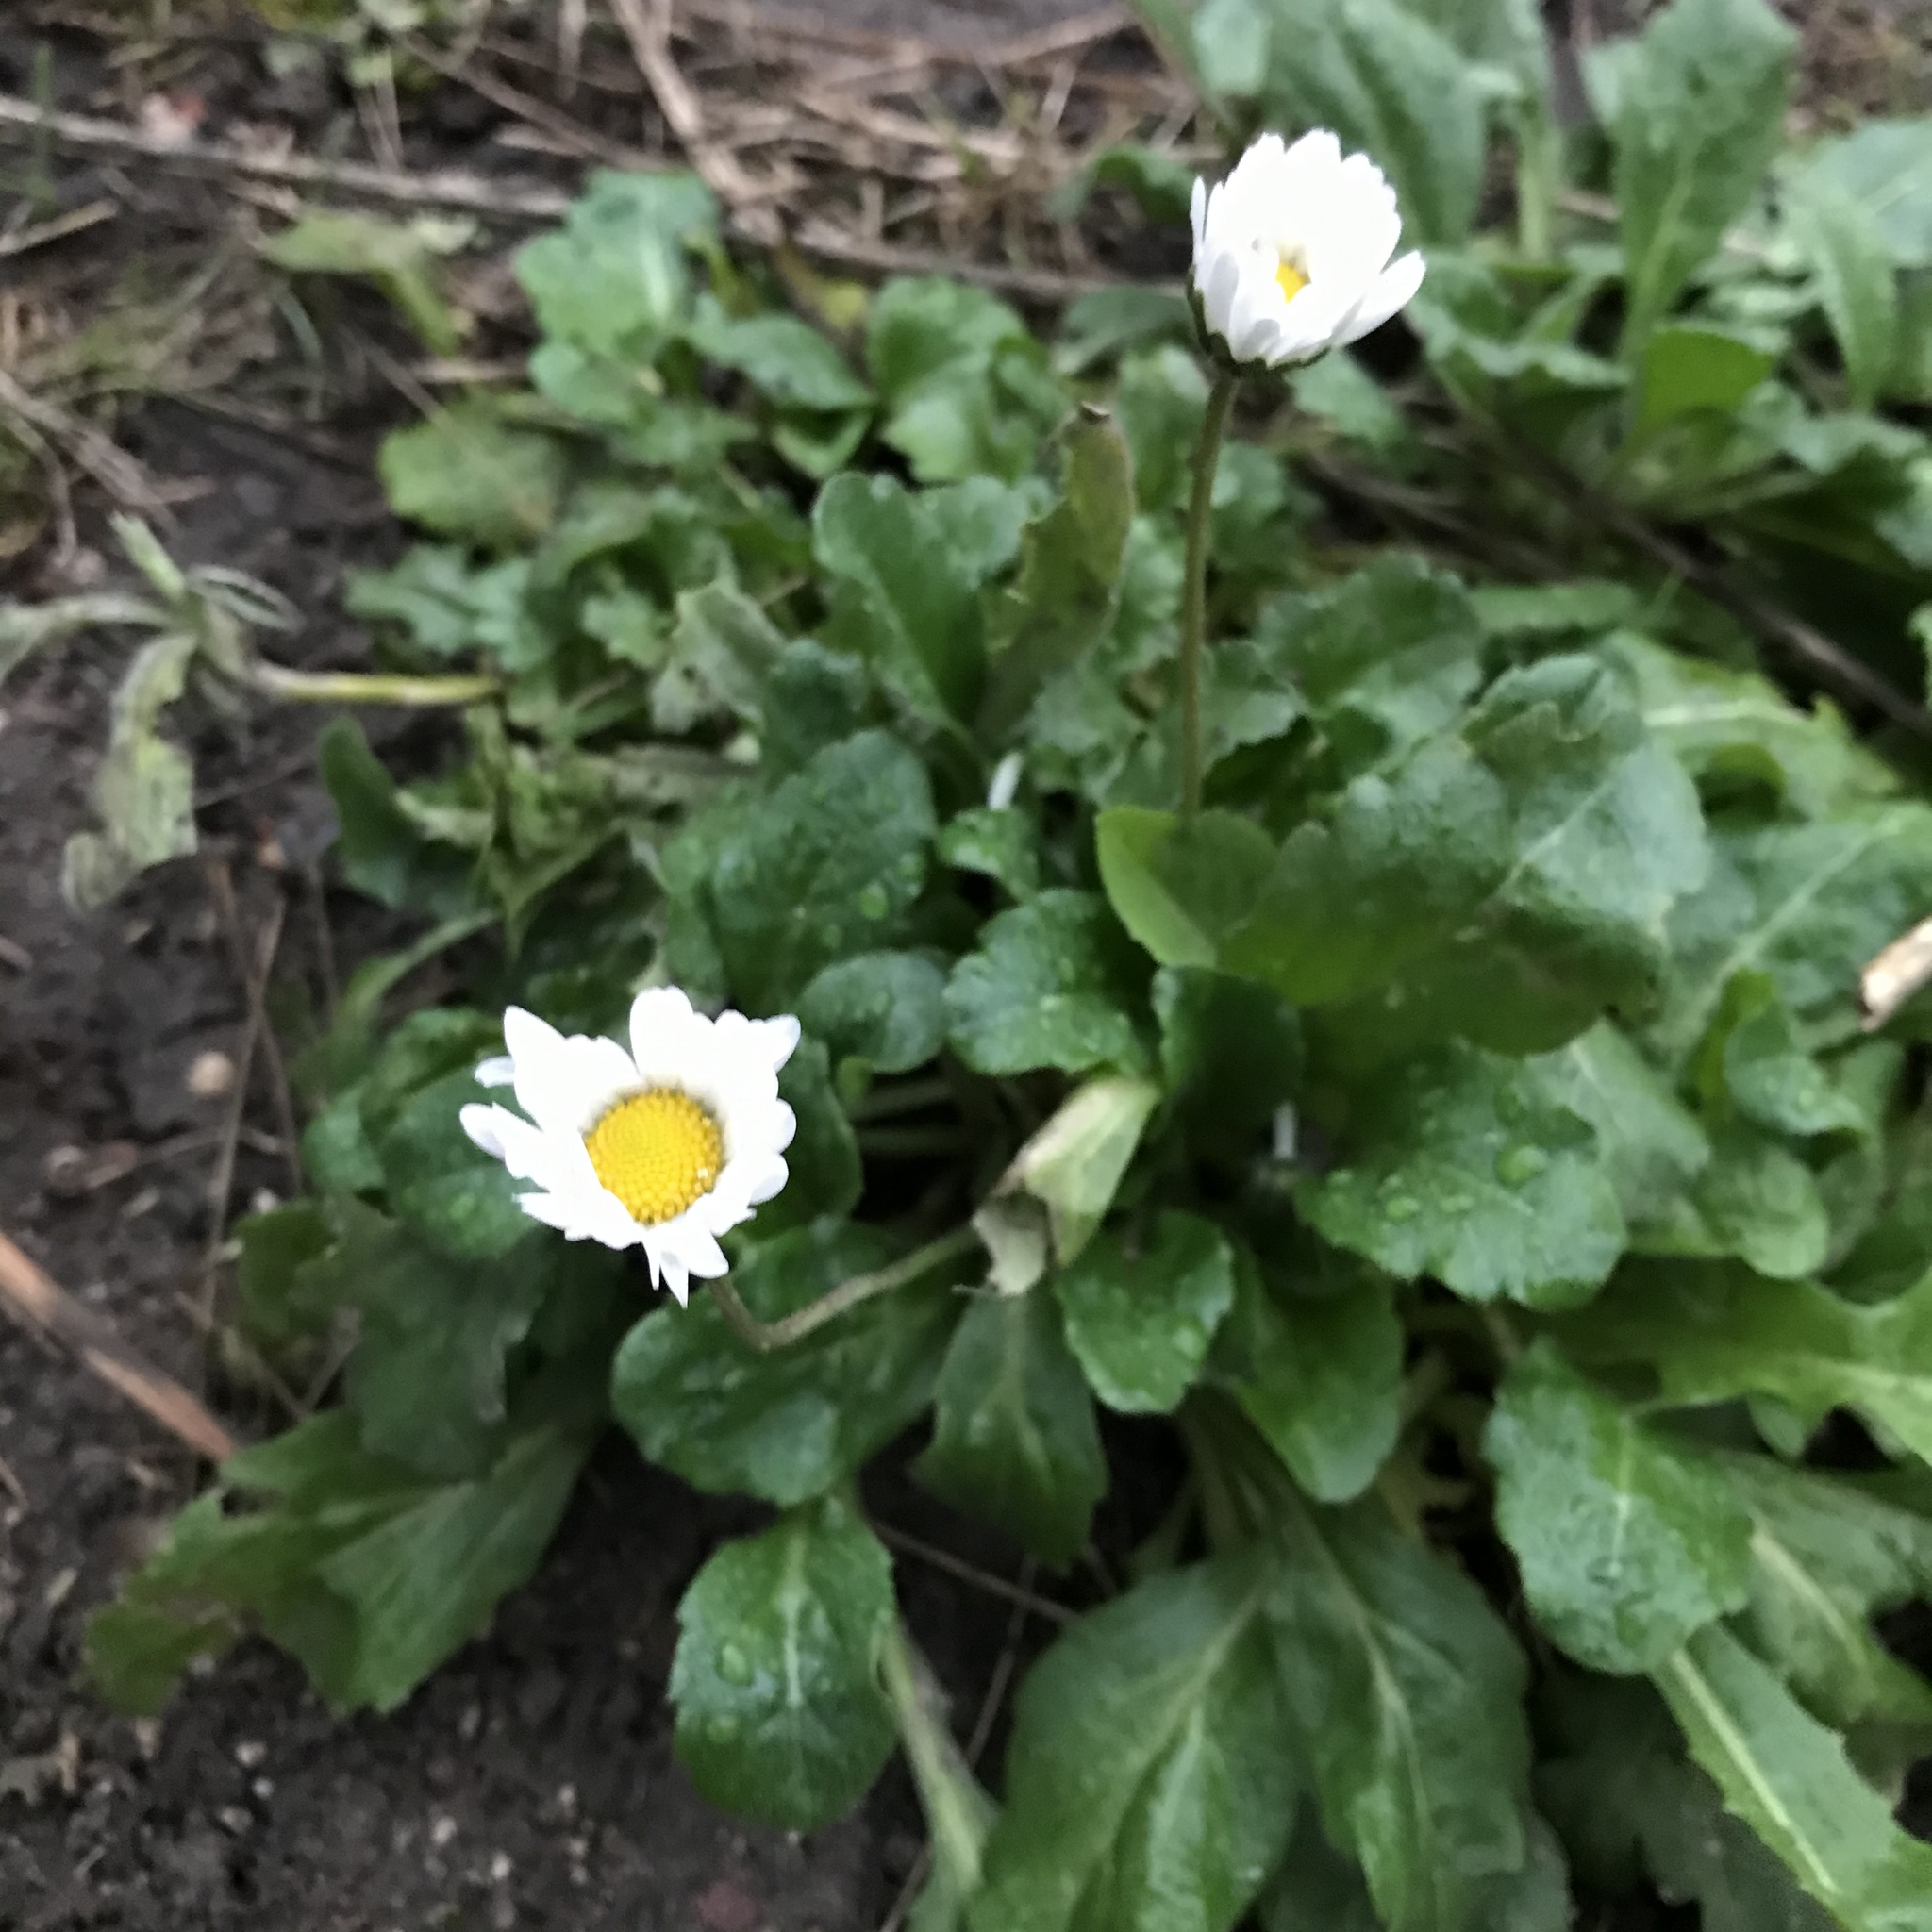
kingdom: Plantae
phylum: Tracheophyta
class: Magnoliopsida
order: Asterales
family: Asteraceae
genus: Bellis
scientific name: Bellis perennis
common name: Lawndaisy
